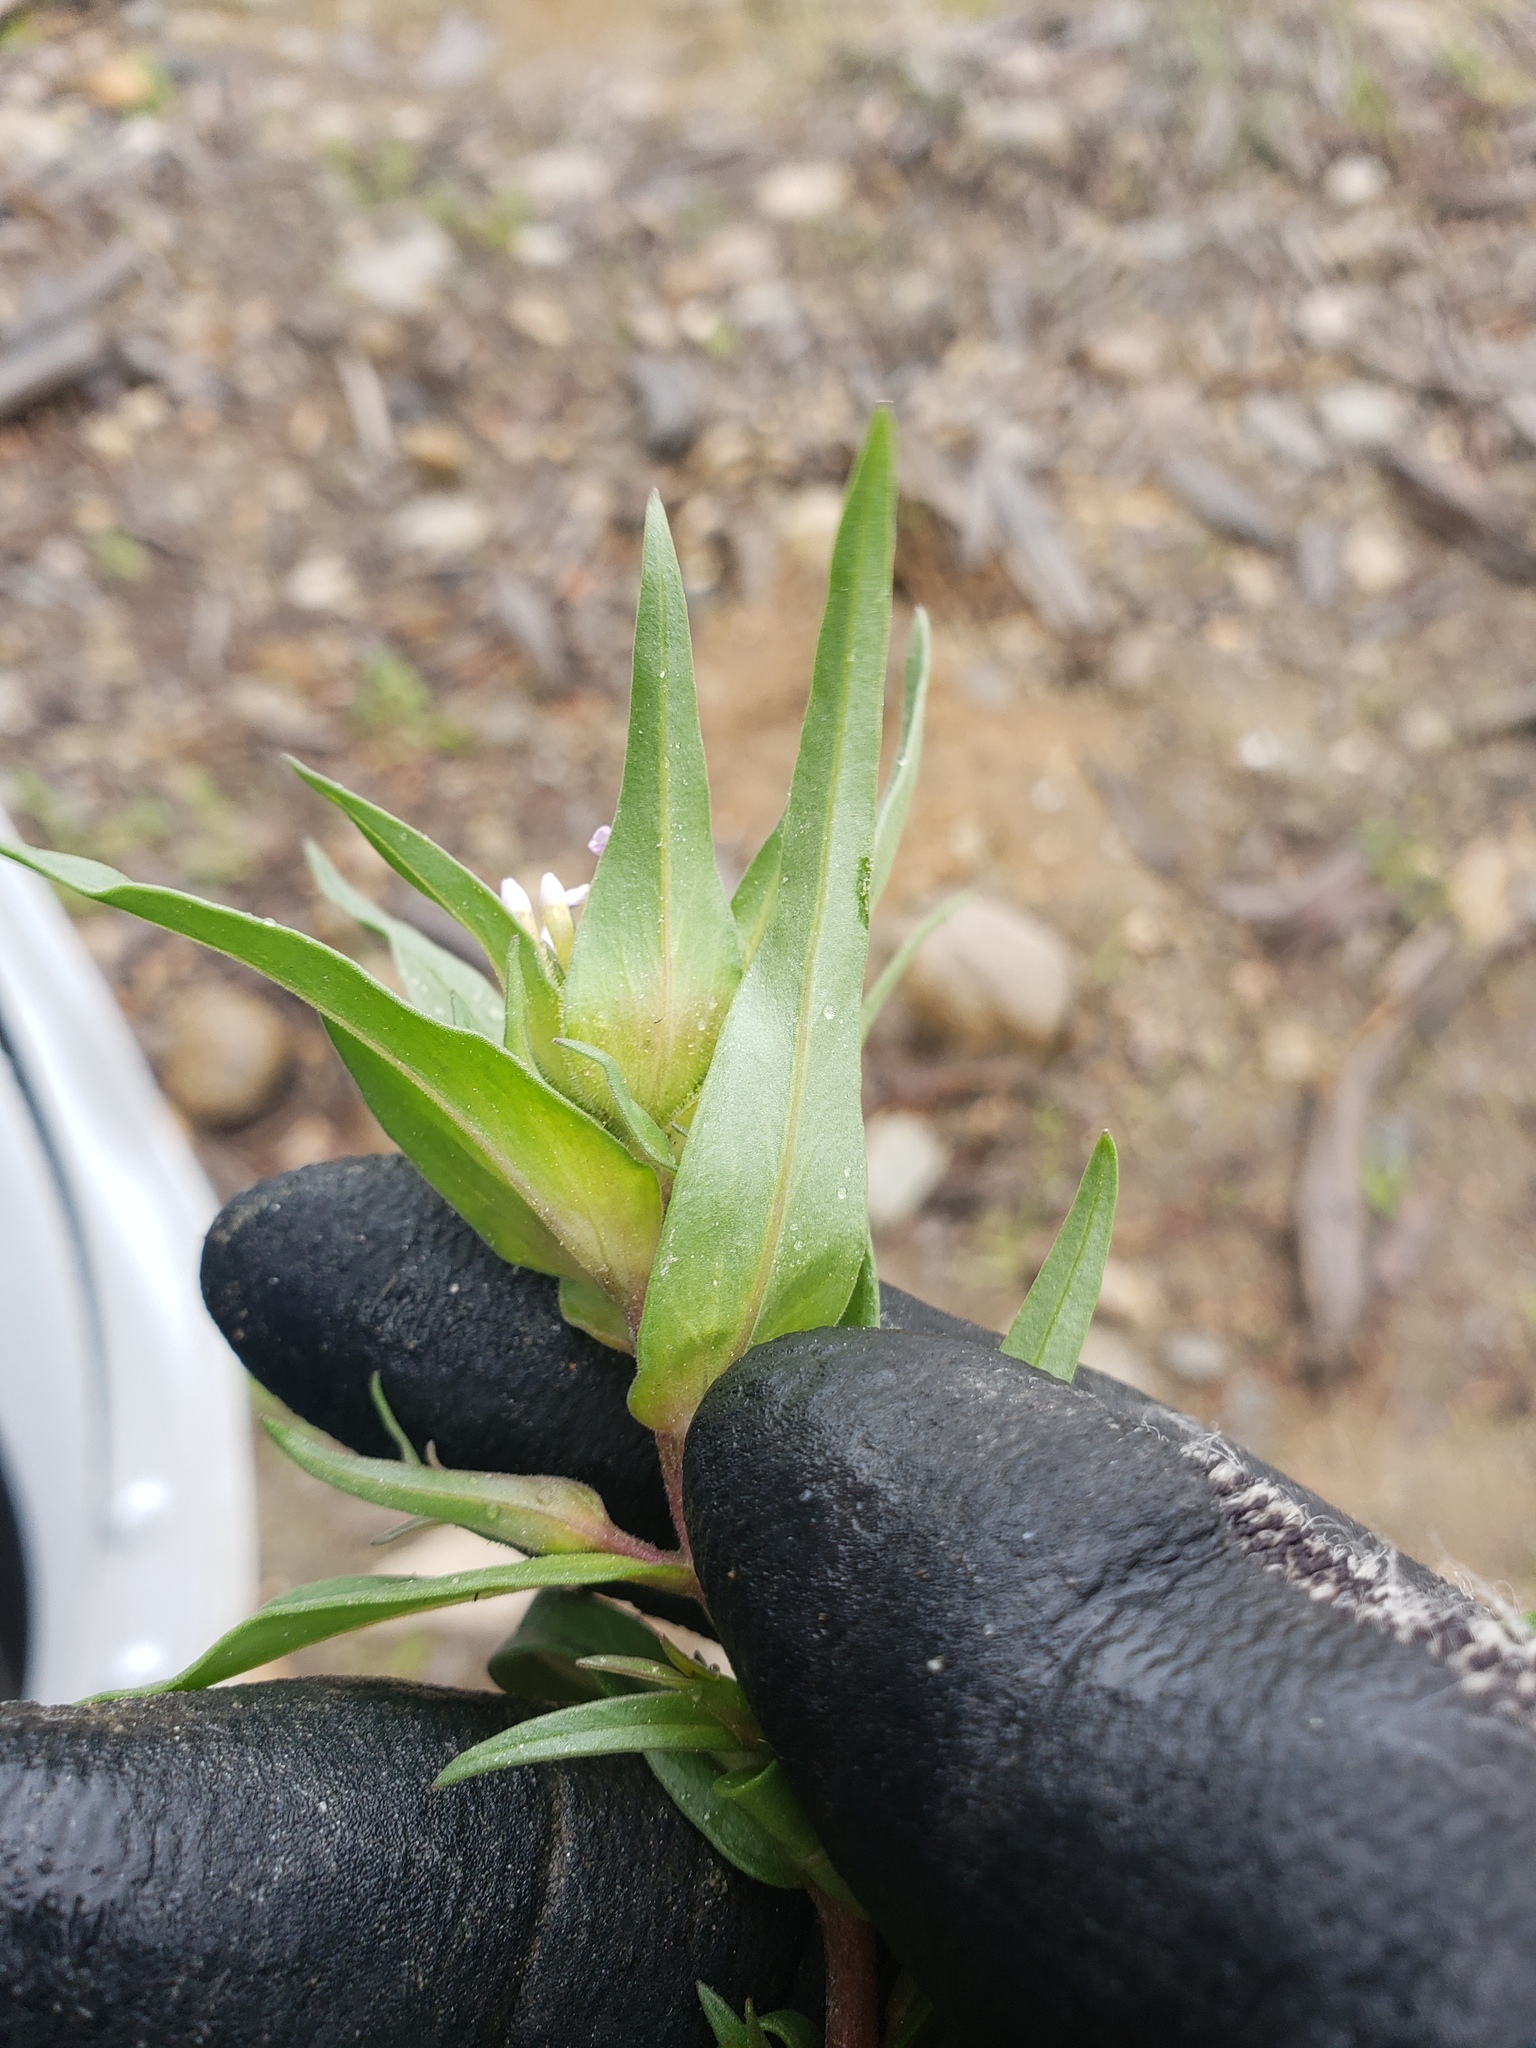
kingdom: Plantae
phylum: Tracheophyta
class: Magnoliopsida
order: Ericales
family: Polemoniaceae
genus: Collomia
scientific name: Collomia linearis
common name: Tiny trumpet
